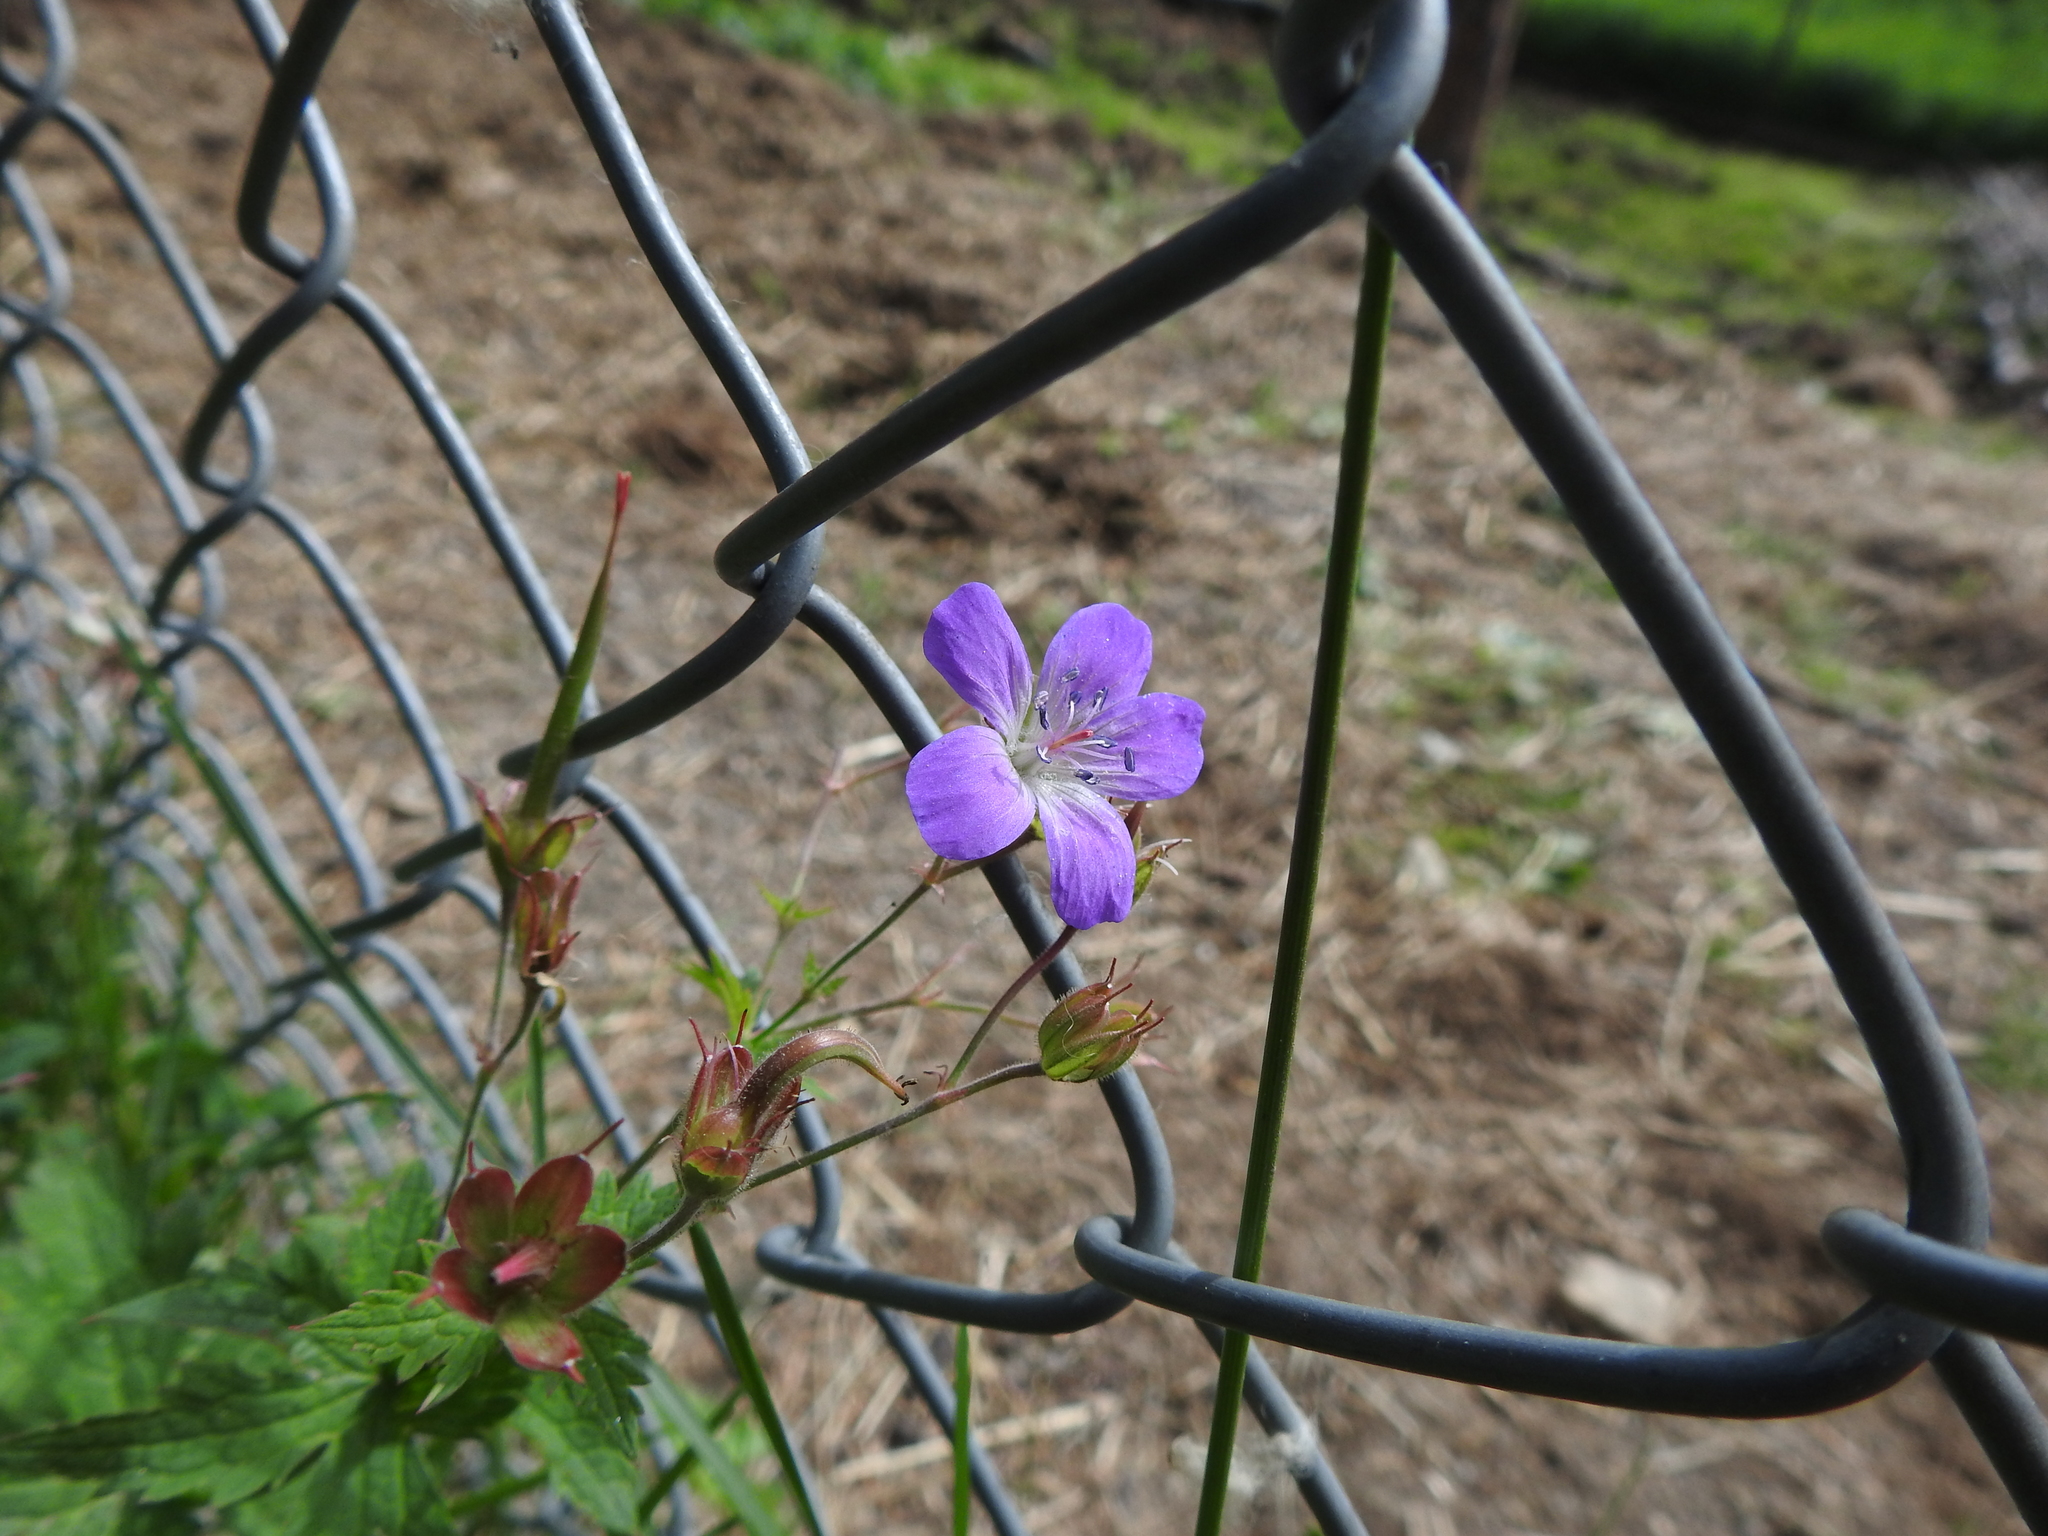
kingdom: Plantae
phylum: Tracheophyta
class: Magnoliopsida
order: Geraniales
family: Geraniaceae
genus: Geranium
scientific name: Geranium sylvaticum
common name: Wood crane's-bill
